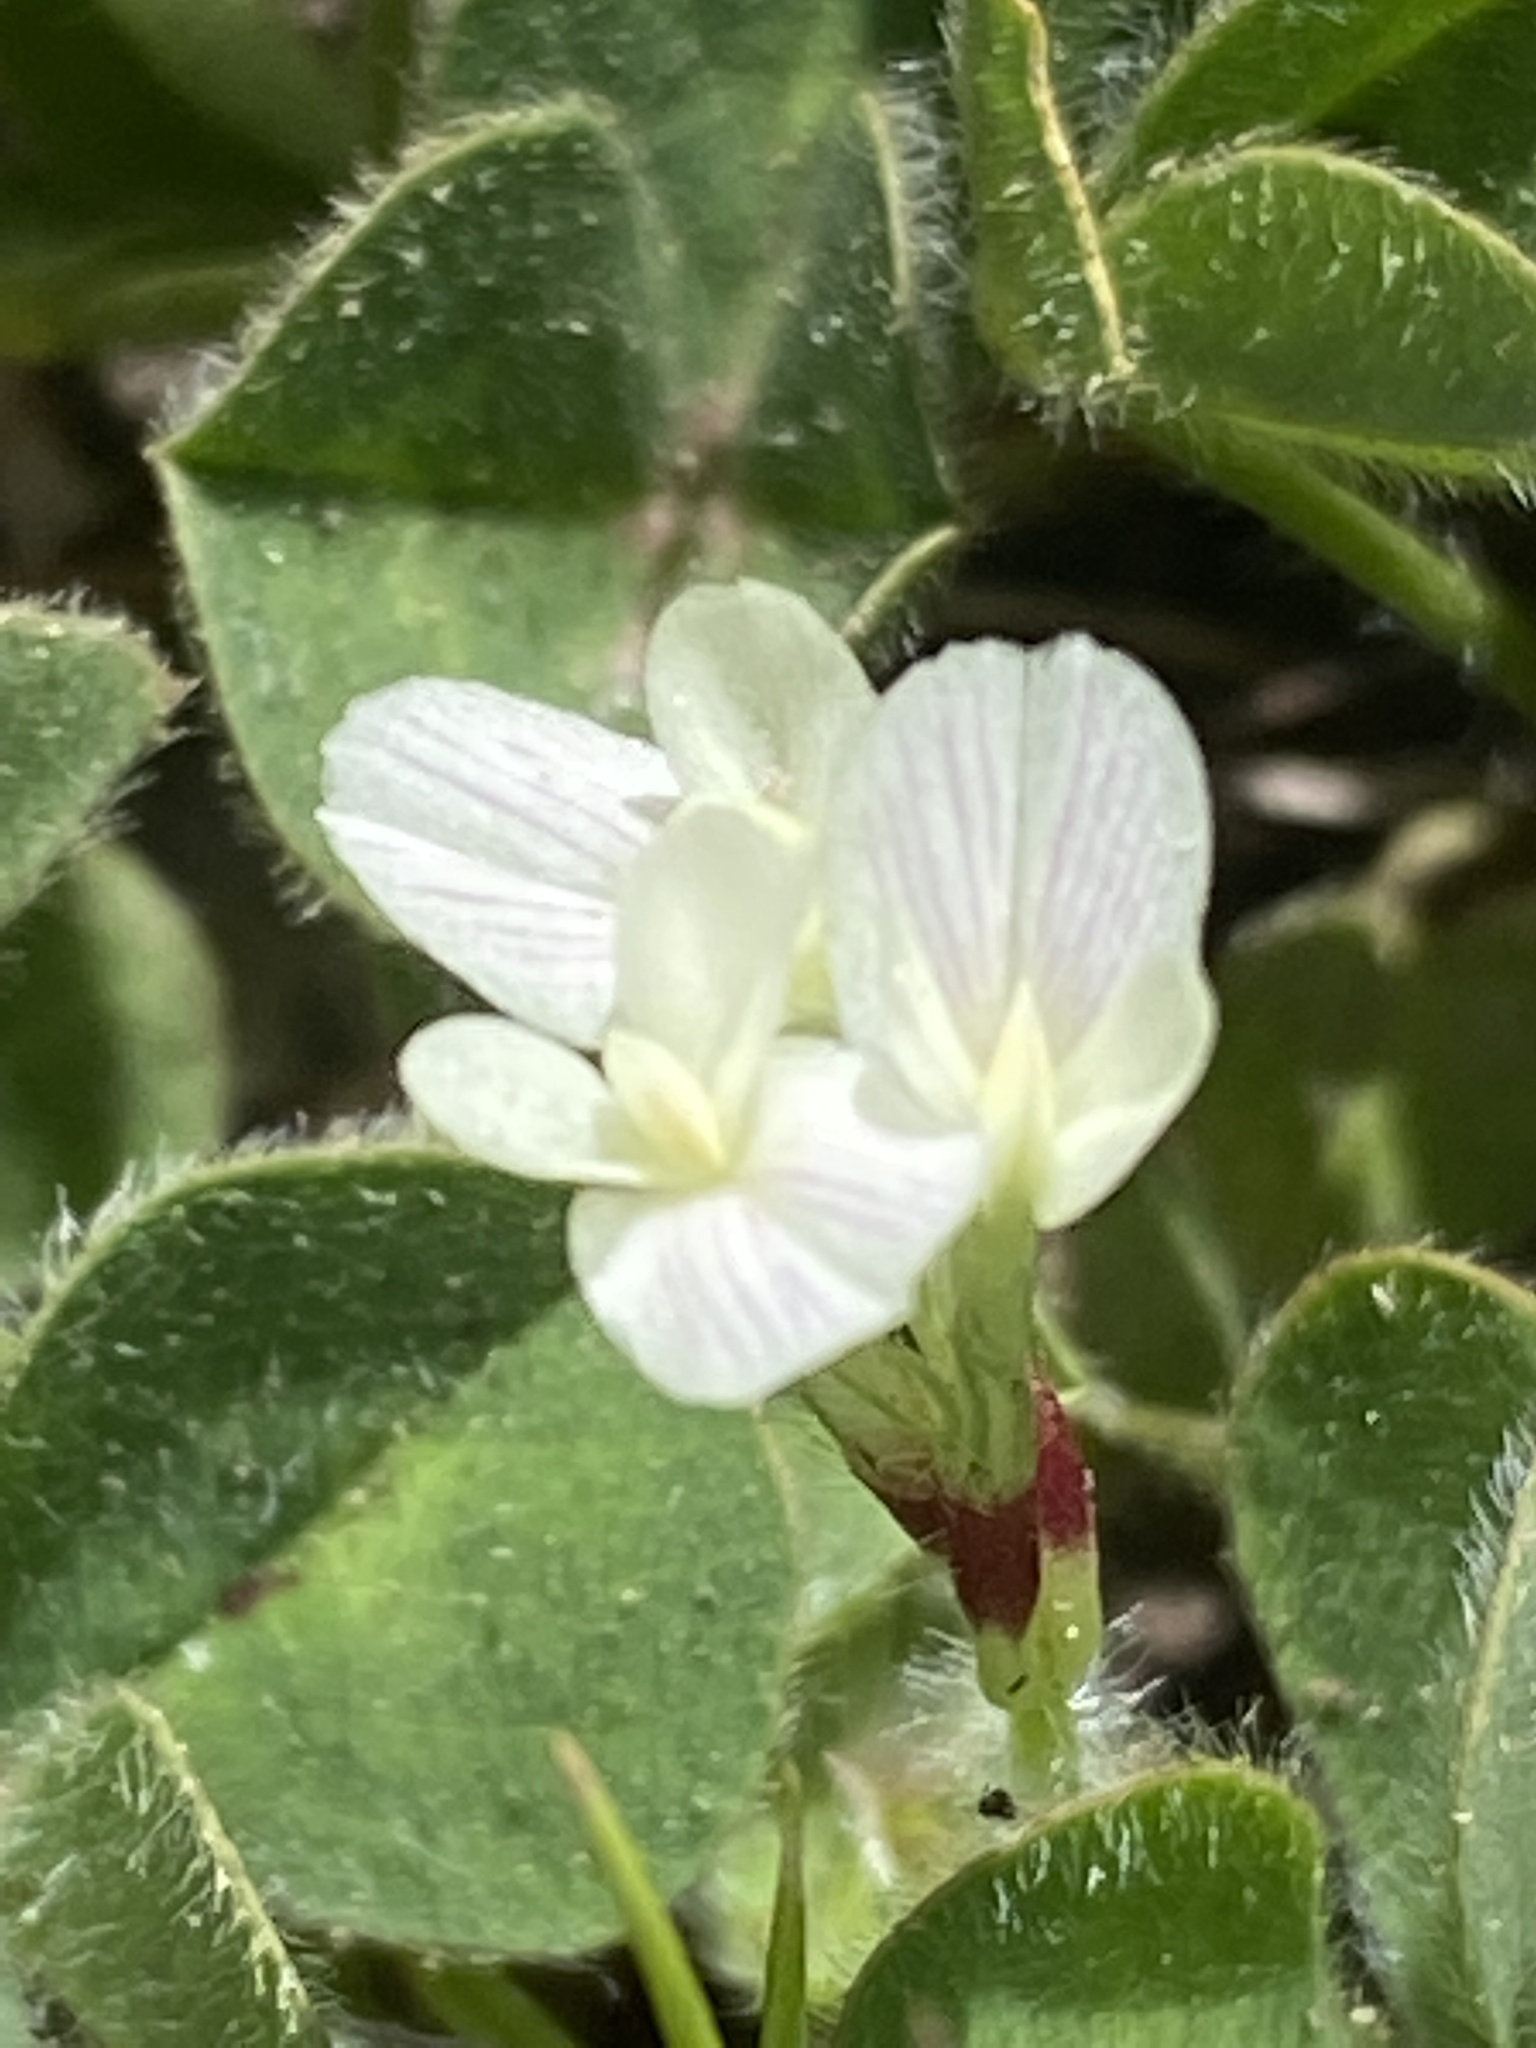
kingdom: Plantae
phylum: Tracheophyta
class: Magnoliopsida
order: Fabales
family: Fabaceae
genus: Trifolium
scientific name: Trifolium subterraneum
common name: Subterranean clover
